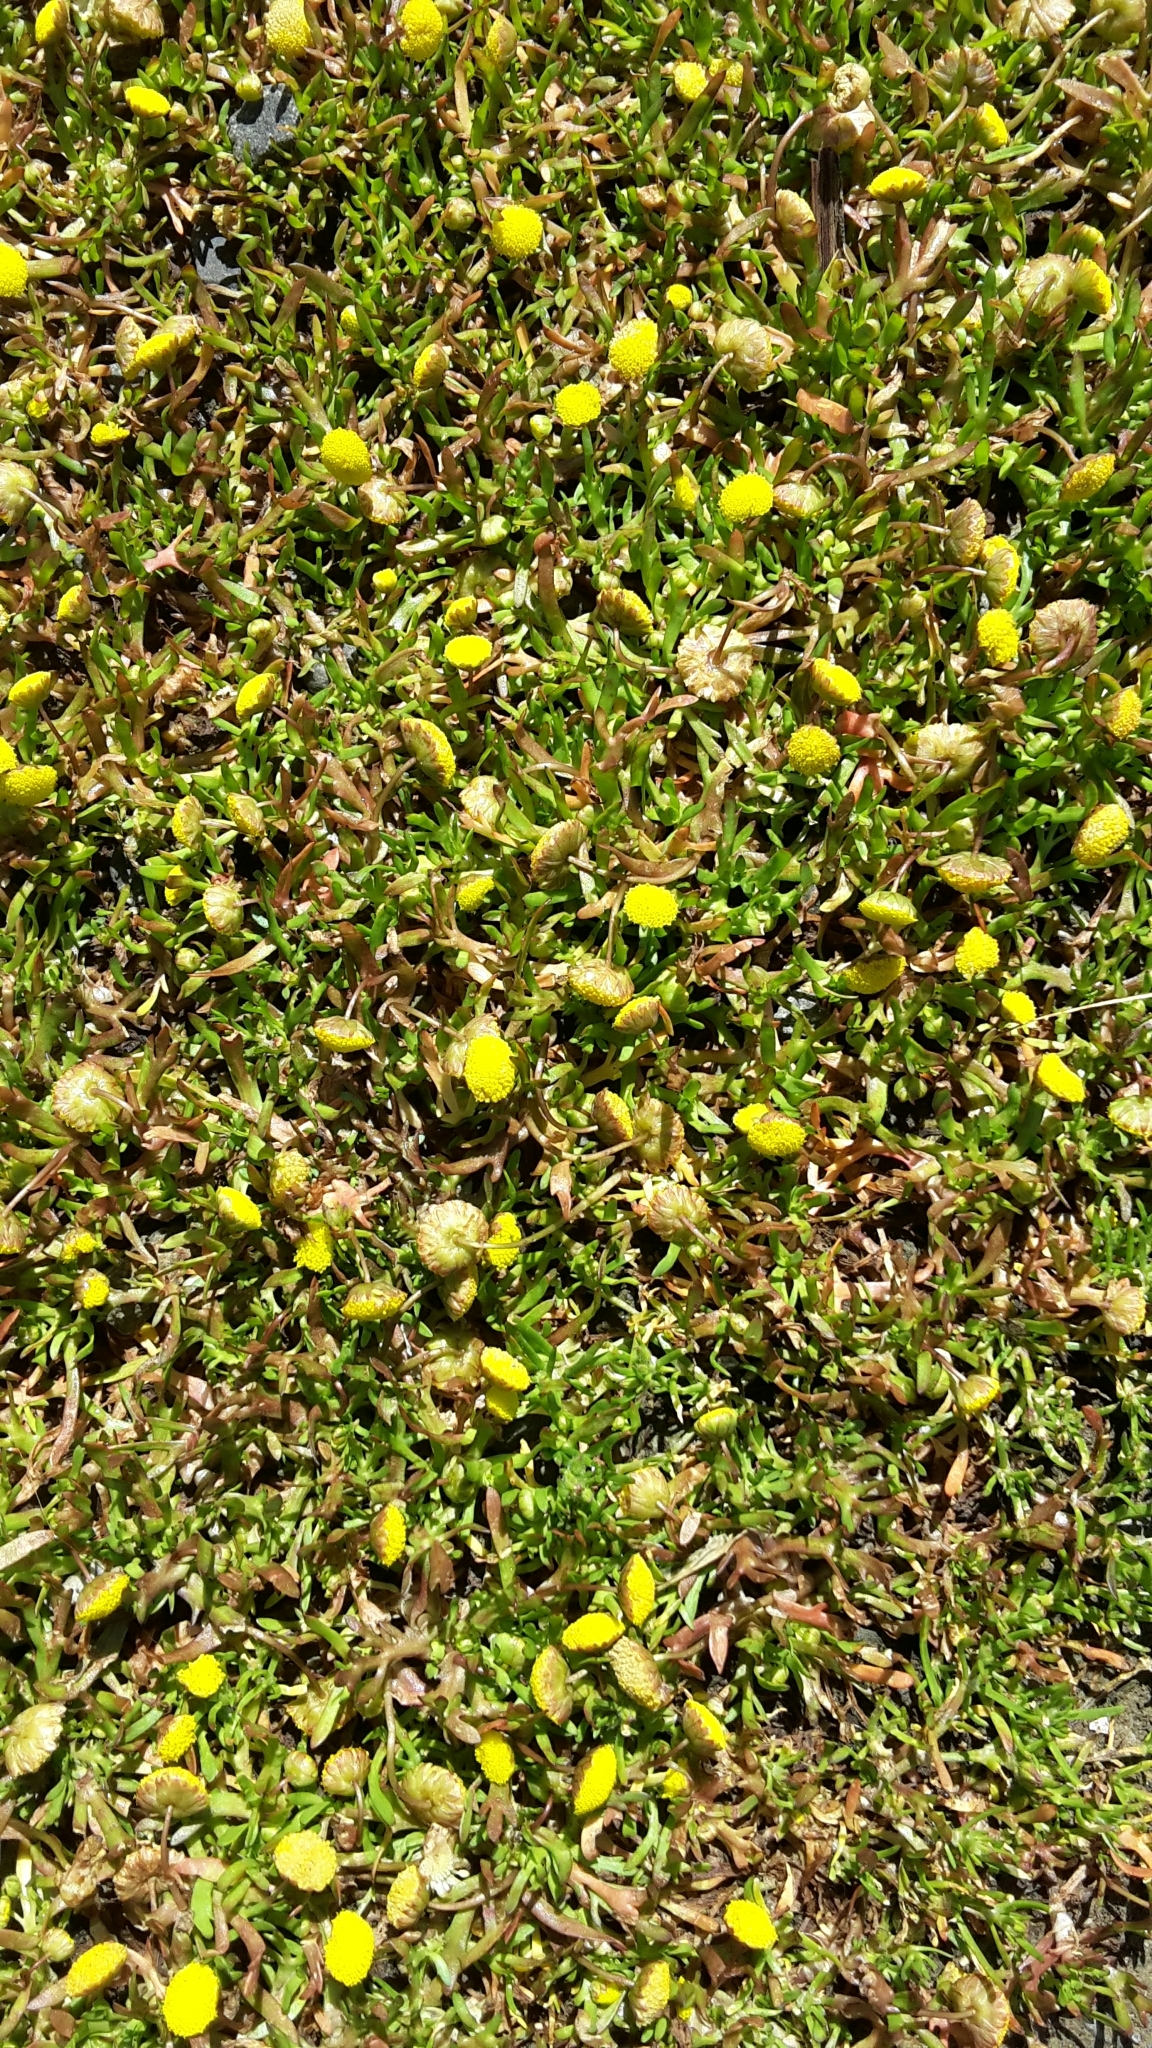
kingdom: Plantae
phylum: Tracheophyta
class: Magnoliopsida
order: Asterales
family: Asteraceae
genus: Cotula
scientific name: Cotula coronopifolia
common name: Buttonweed
